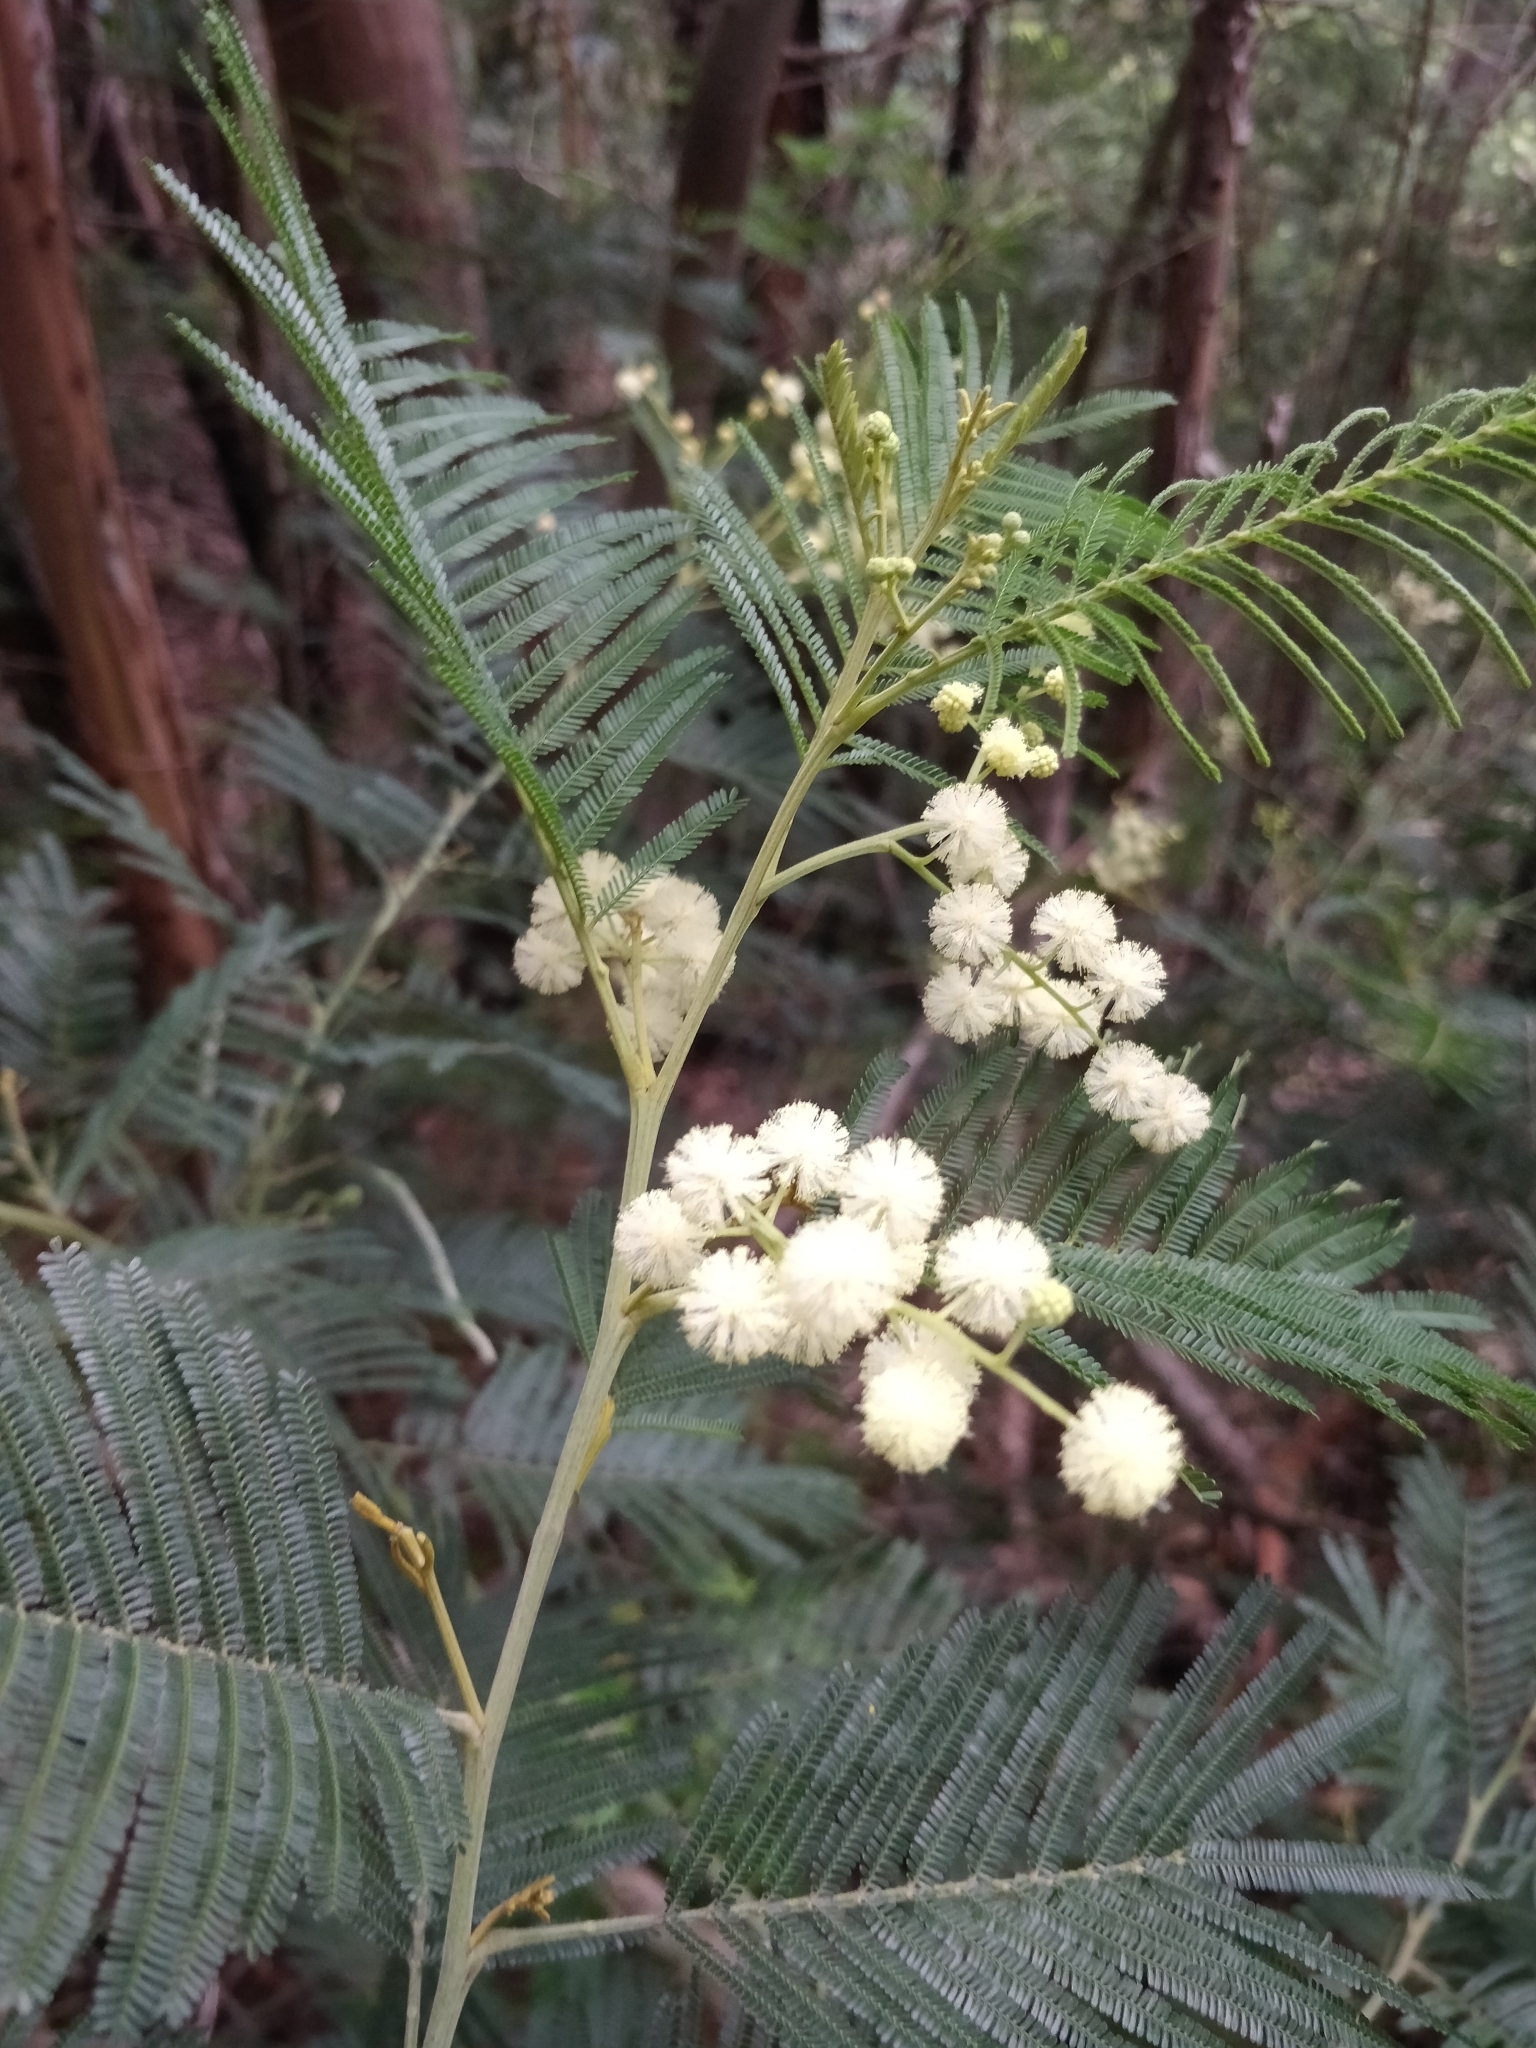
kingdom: Plantae
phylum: Tracheophyta
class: Magnoliopsida
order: Fabales
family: Fabaceae
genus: Acacia
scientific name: Acacia mearnsii
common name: Black wattle
